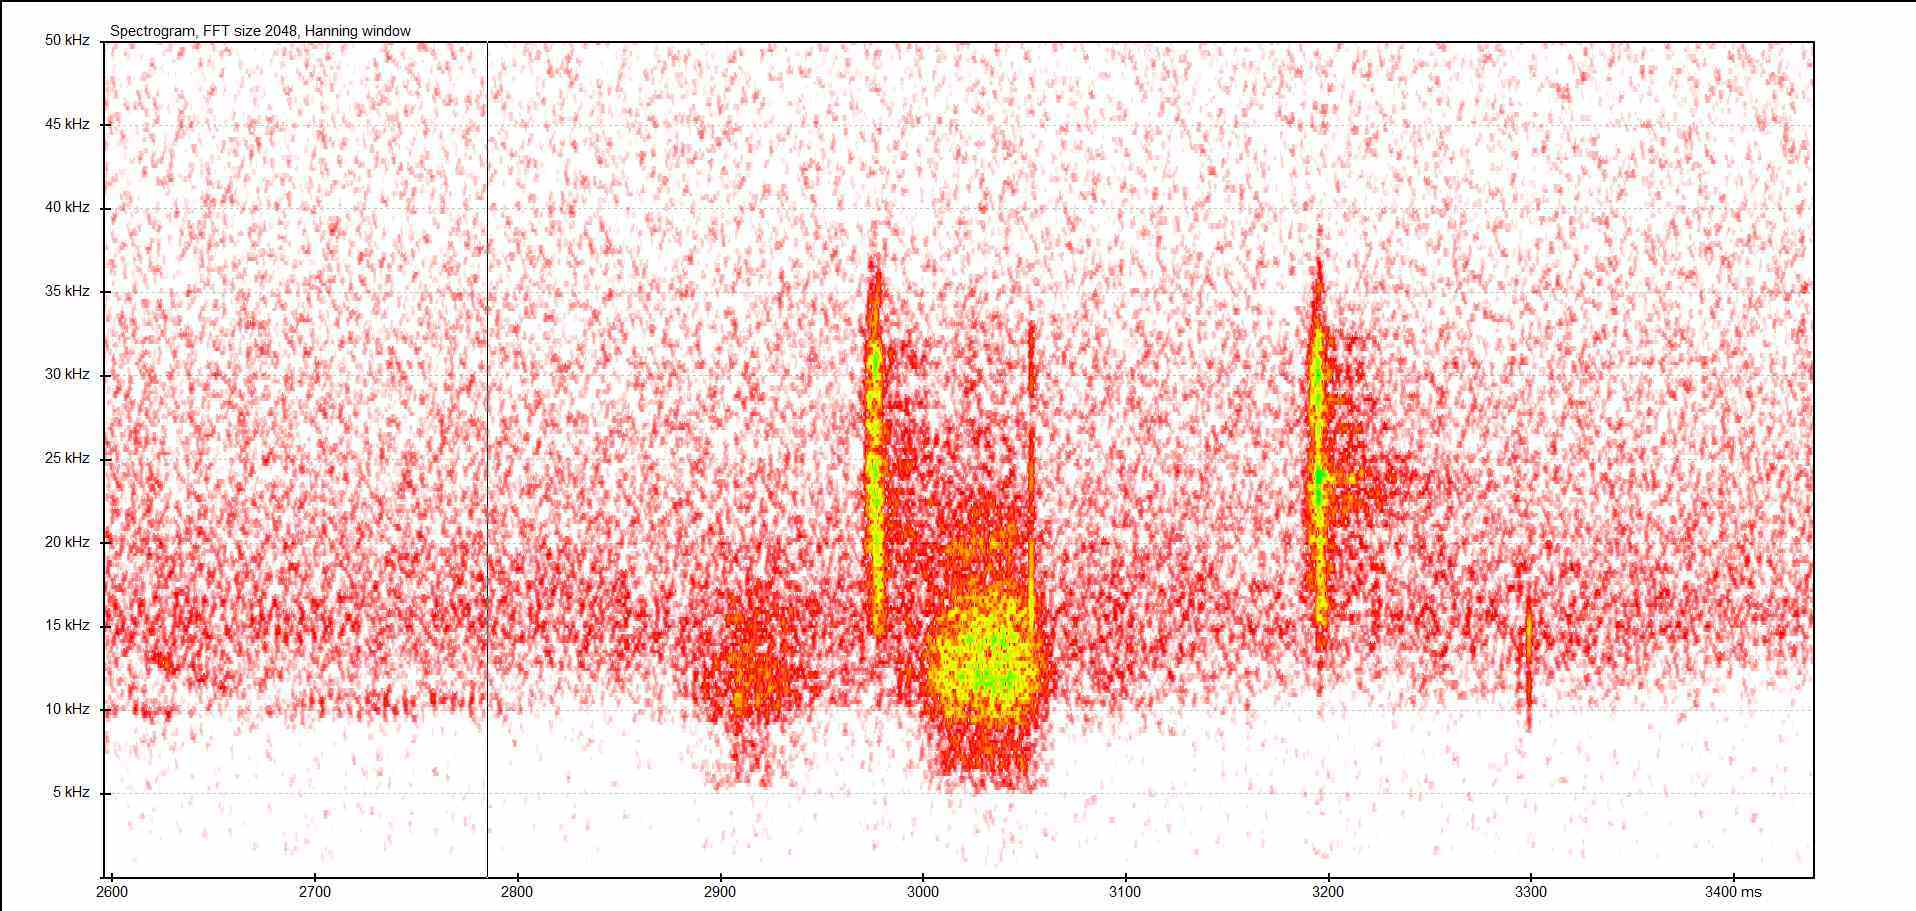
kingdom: Animalia
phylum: Arthropoda
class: Insecta
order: Orthoptera
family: Tettigoniidae
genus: Barbitistes
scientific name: Barbitistes serricauda
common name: Saw-tailed bush-cricket
